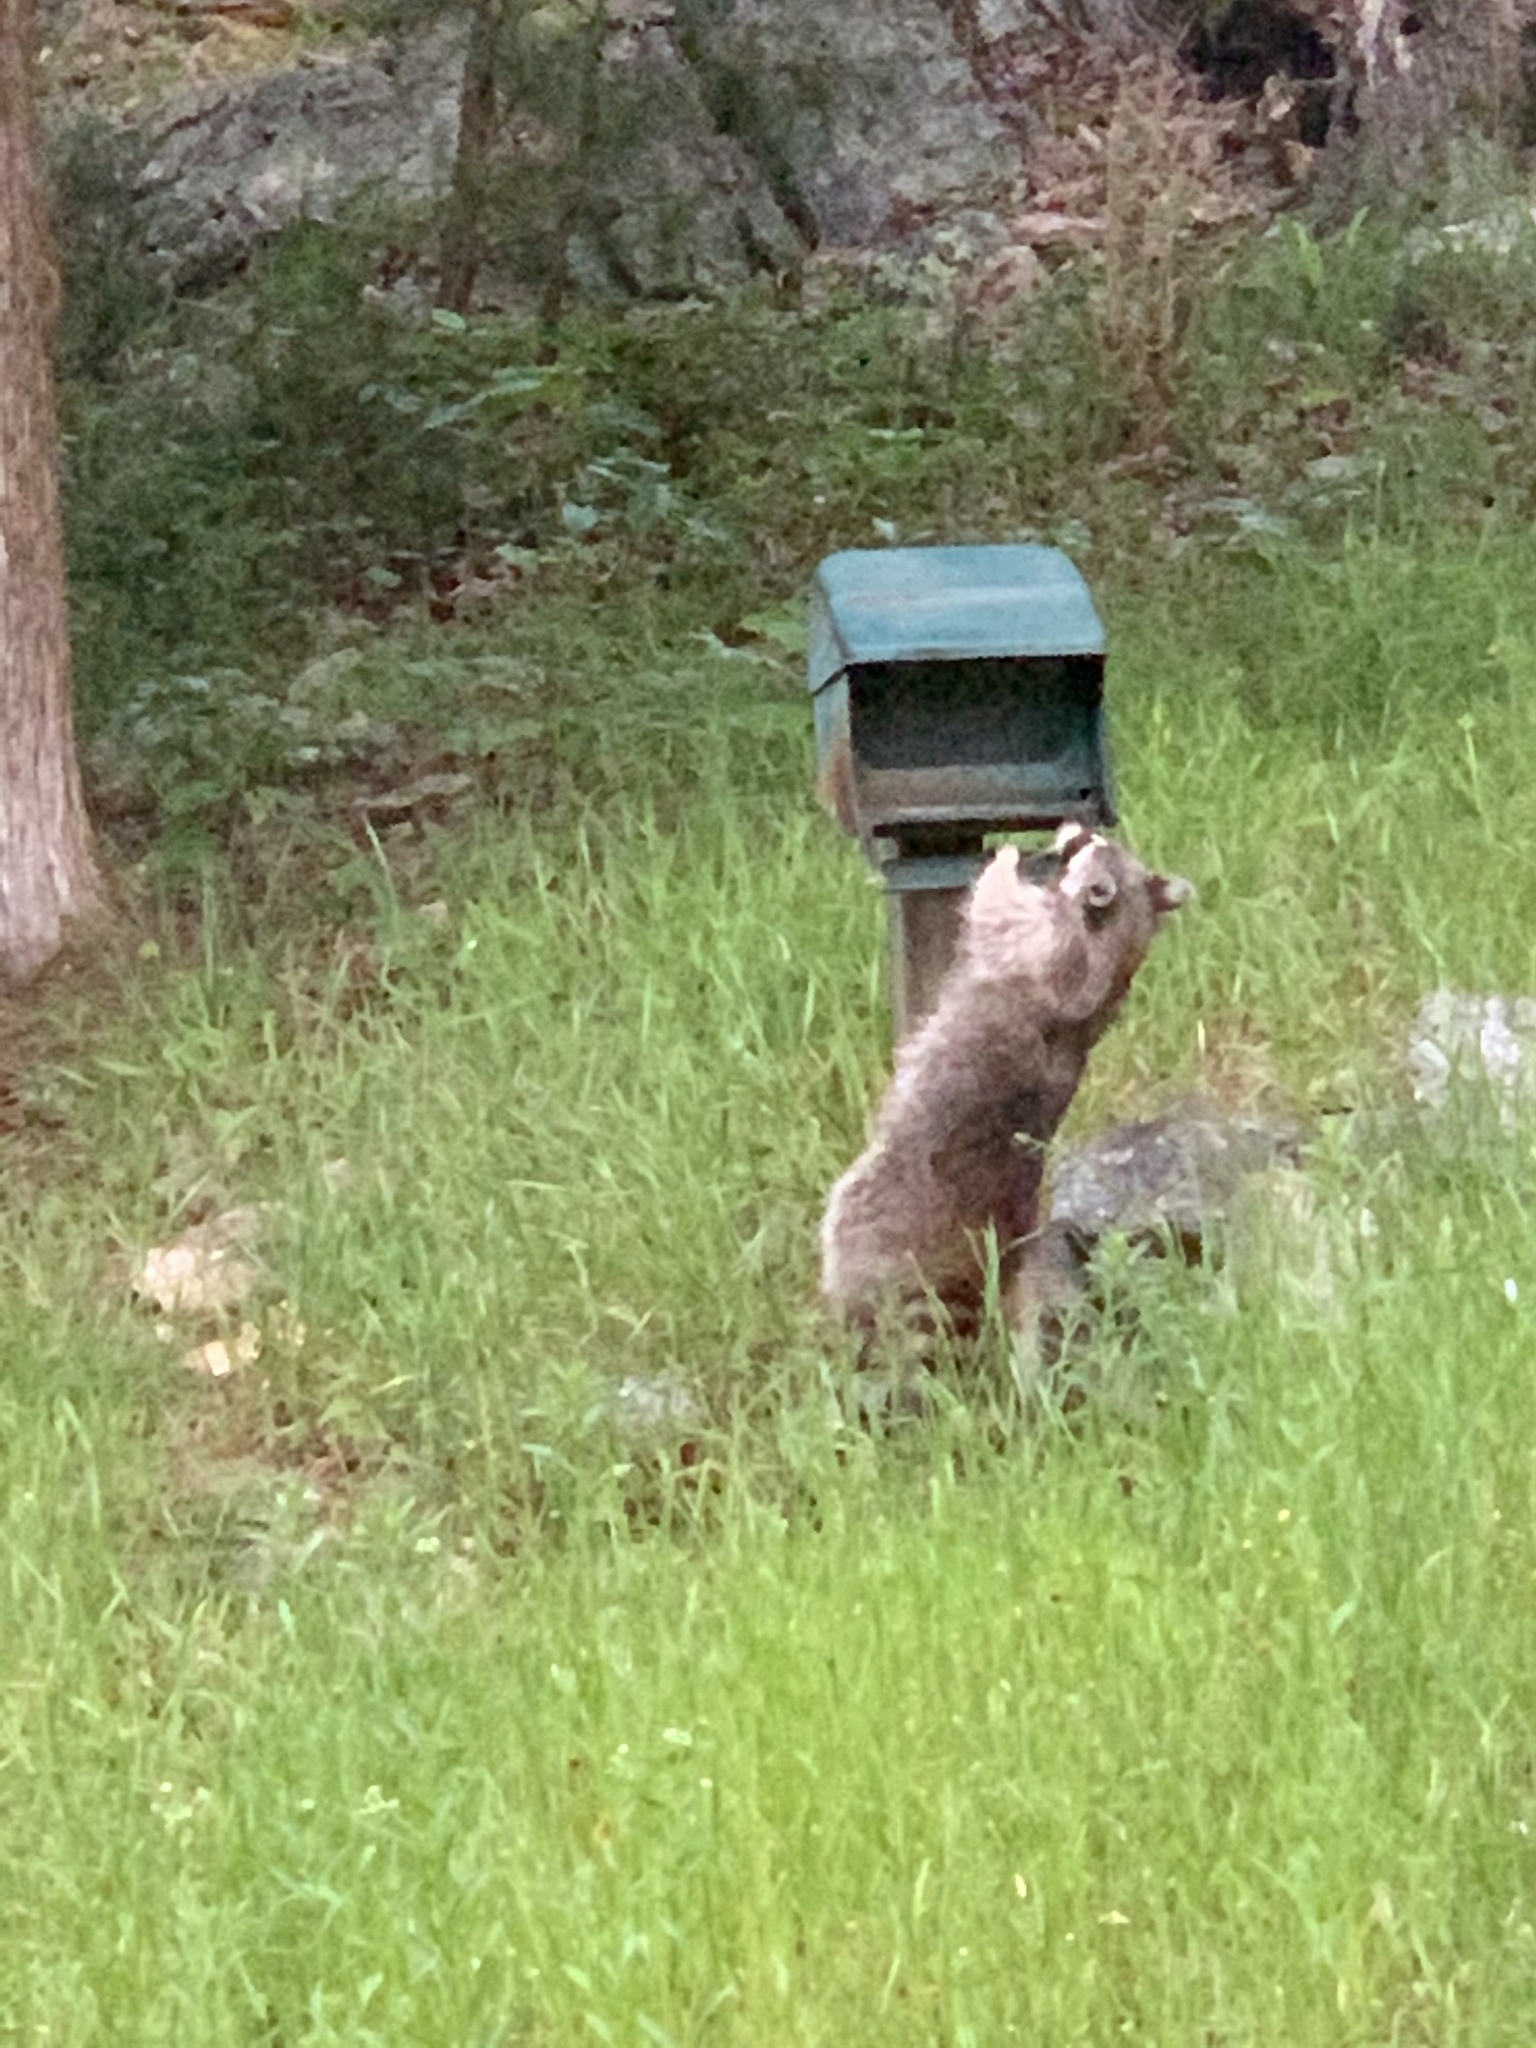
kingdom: Animalia
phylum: Chordata
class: Mammalia
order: Carnivora
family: Procyonidae
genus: Procyon
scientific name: Procyon lotor
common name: Raccoon
